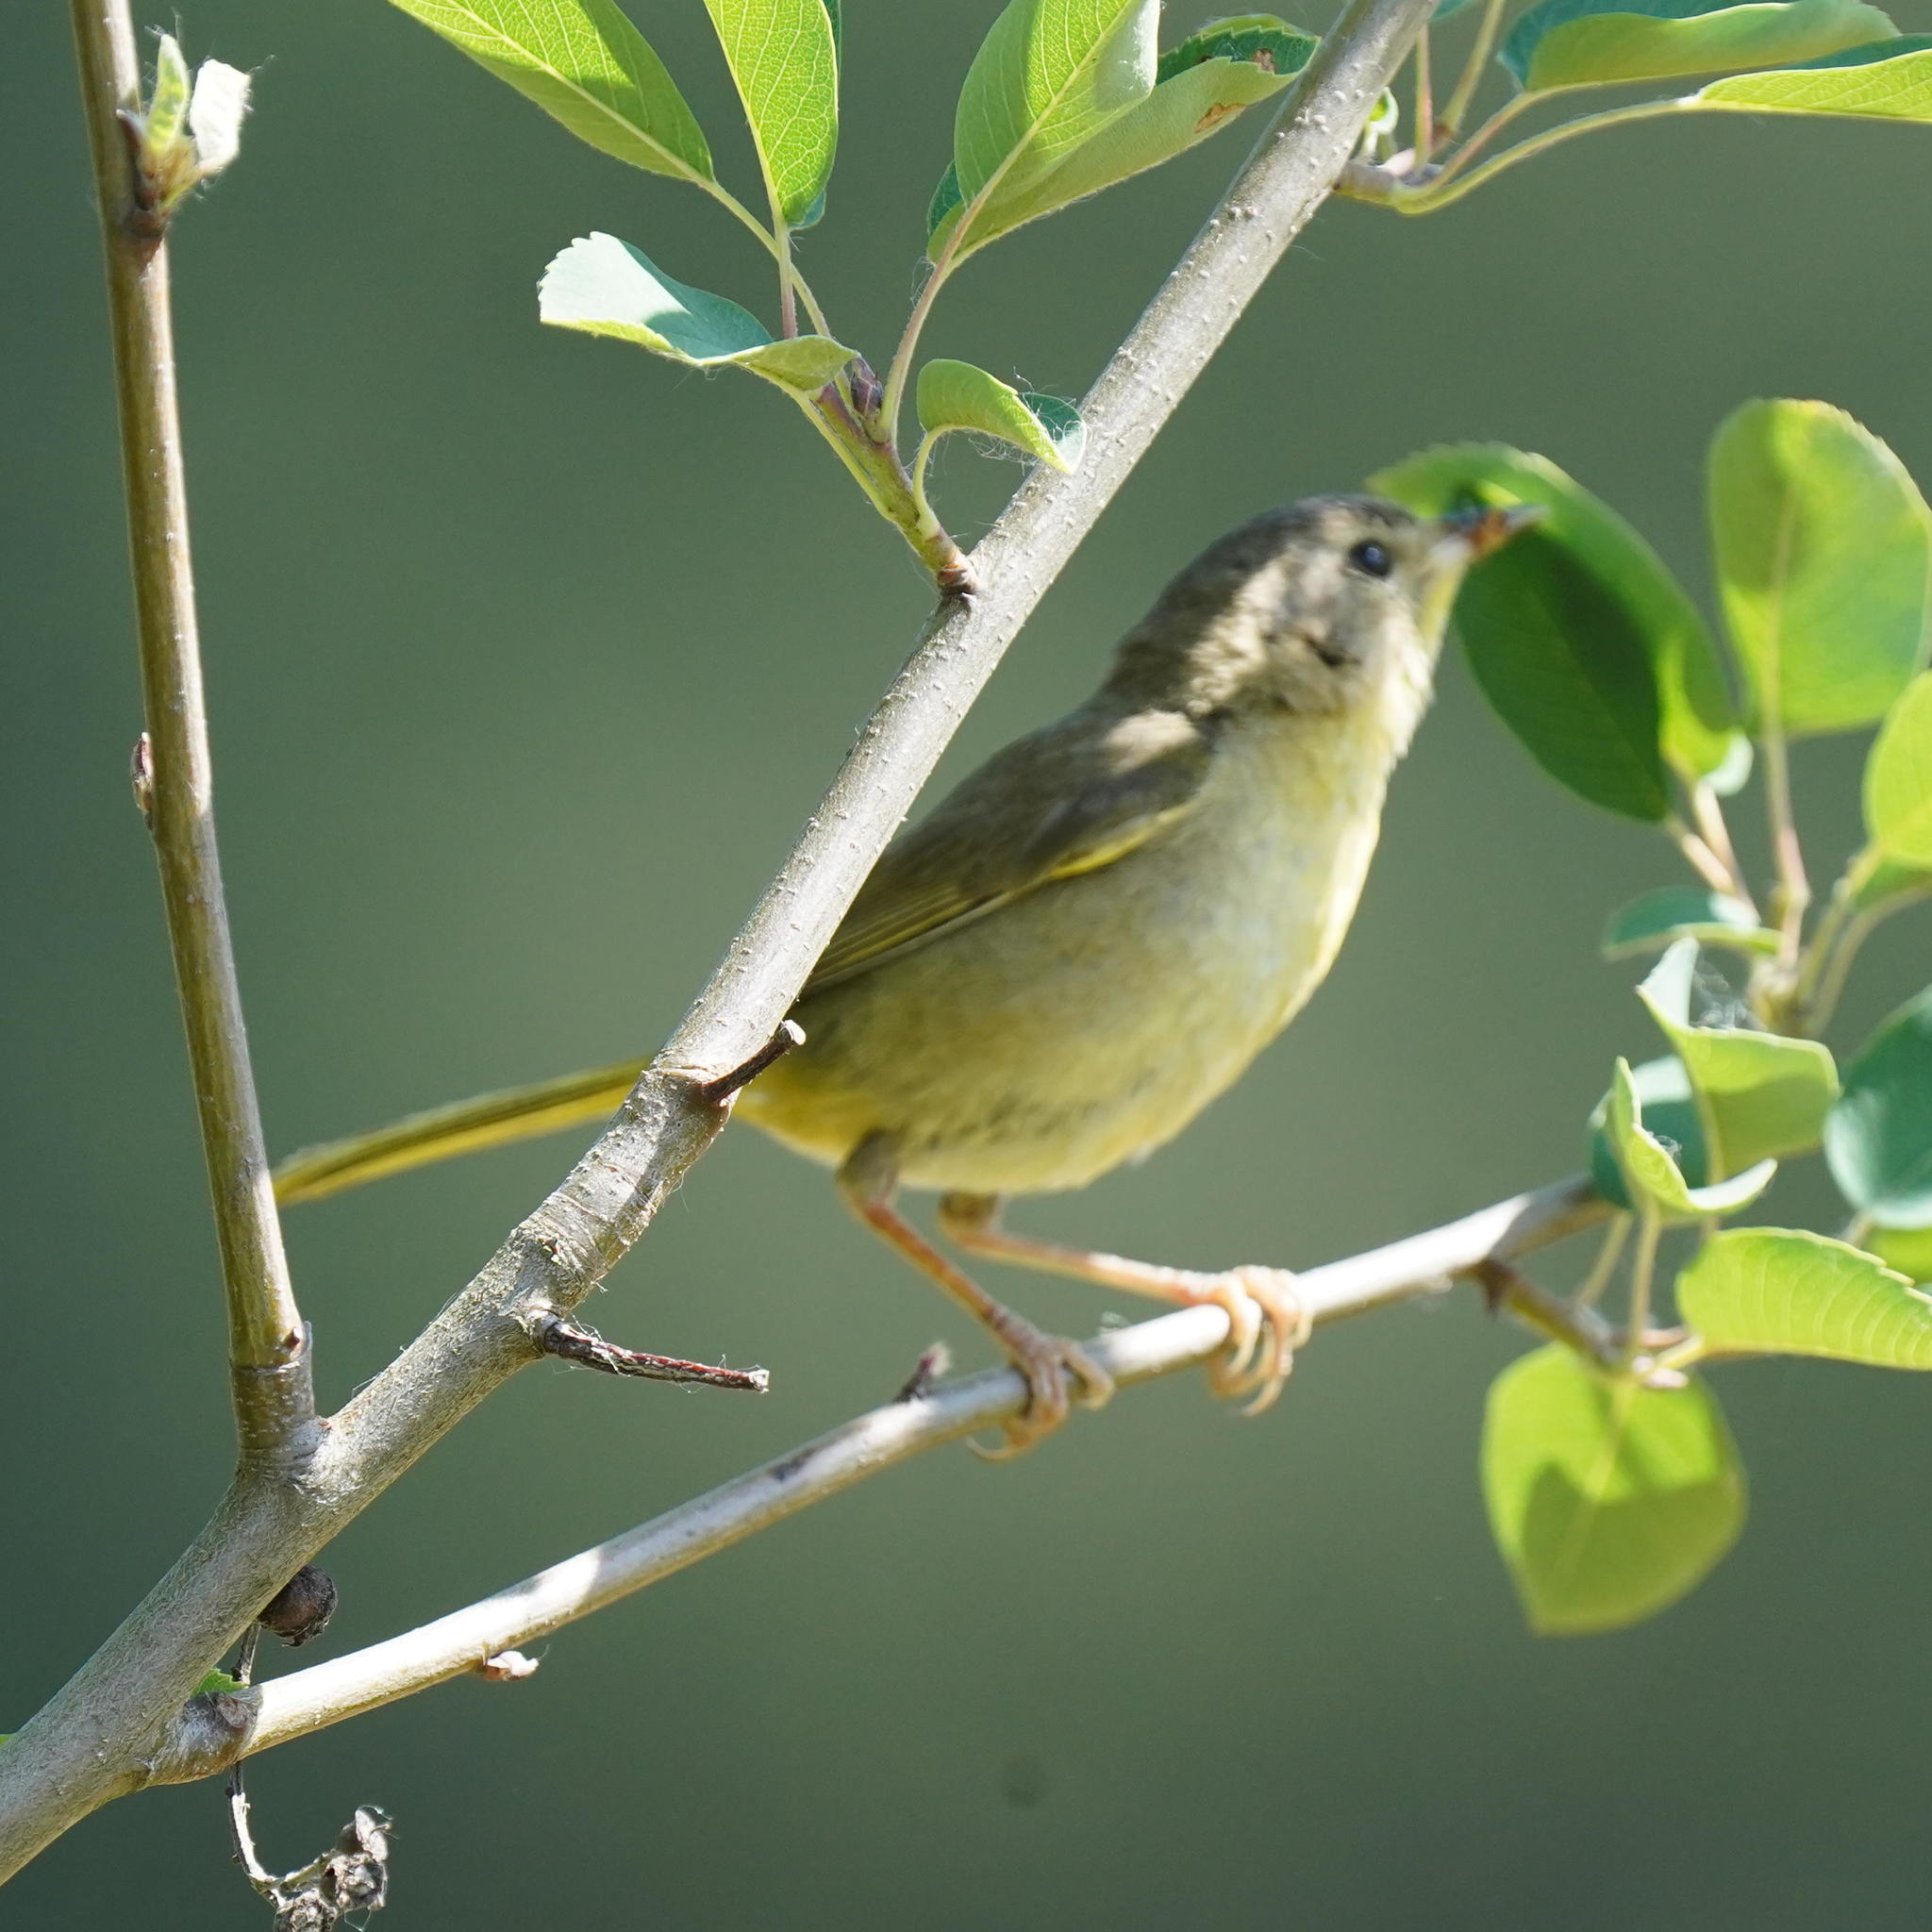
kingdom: Animalia
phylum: Chordata
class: Aves
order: Passeriformes
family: Parulidae
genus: Geothlypis
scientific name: Geothlypis trichas
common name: Common yellowthroat
